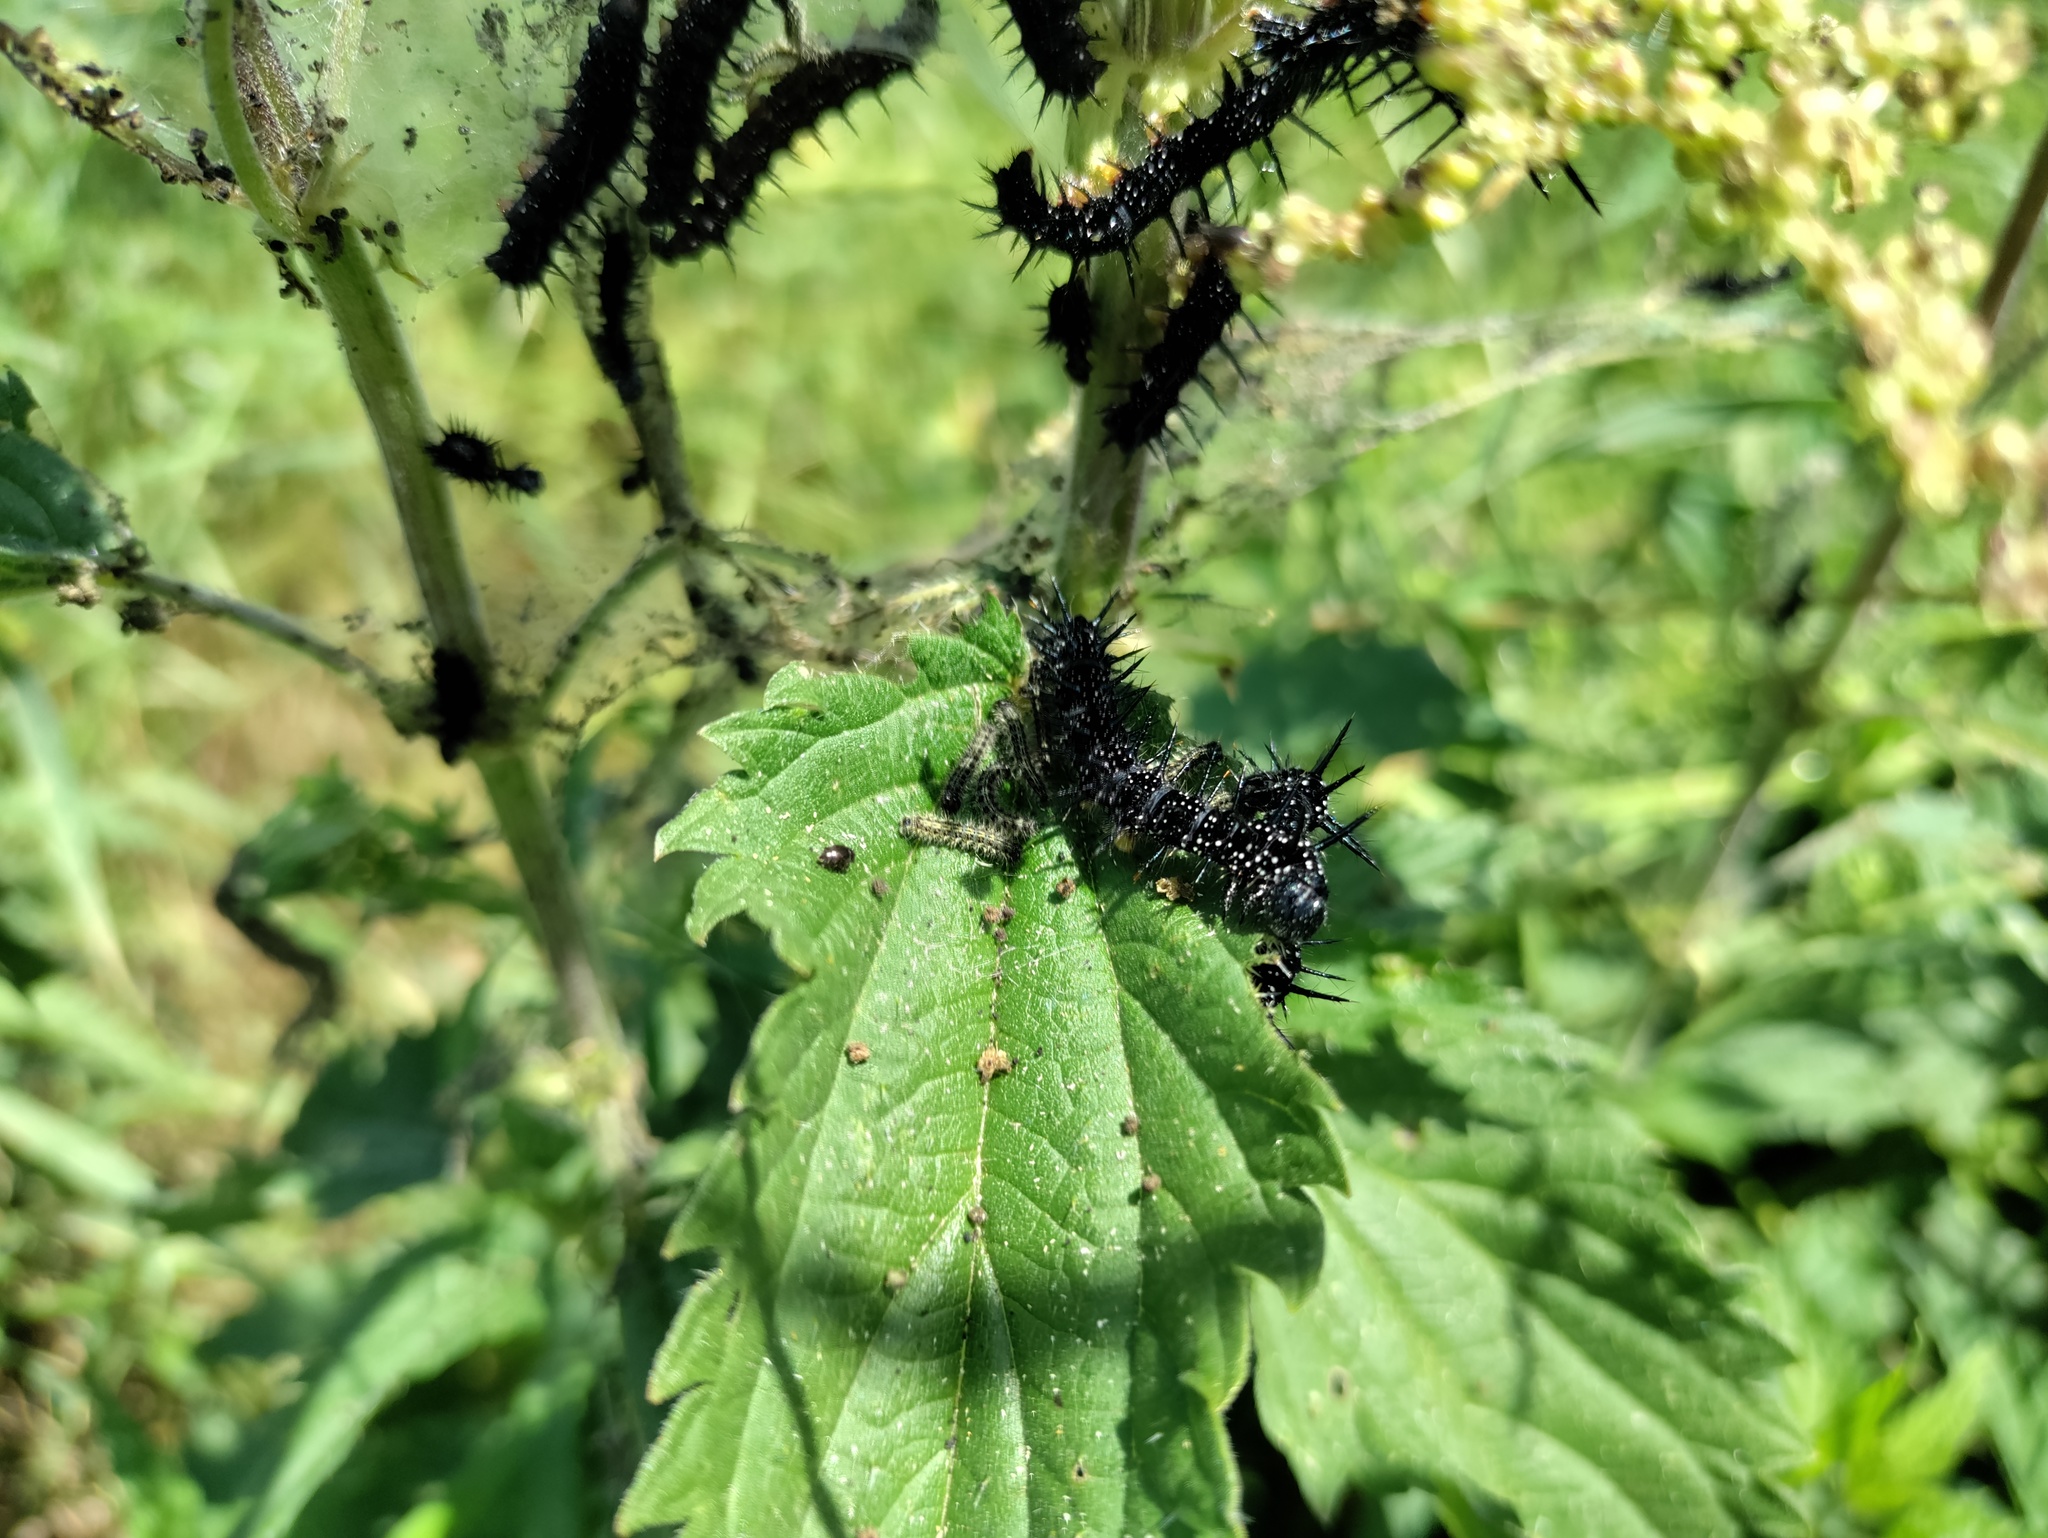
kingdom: Animalia
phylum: Arthropoda
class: Insecta
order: Lepidoptera
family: Nymphalidae
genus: Aglais
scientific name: Aglais io
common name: Peacock
